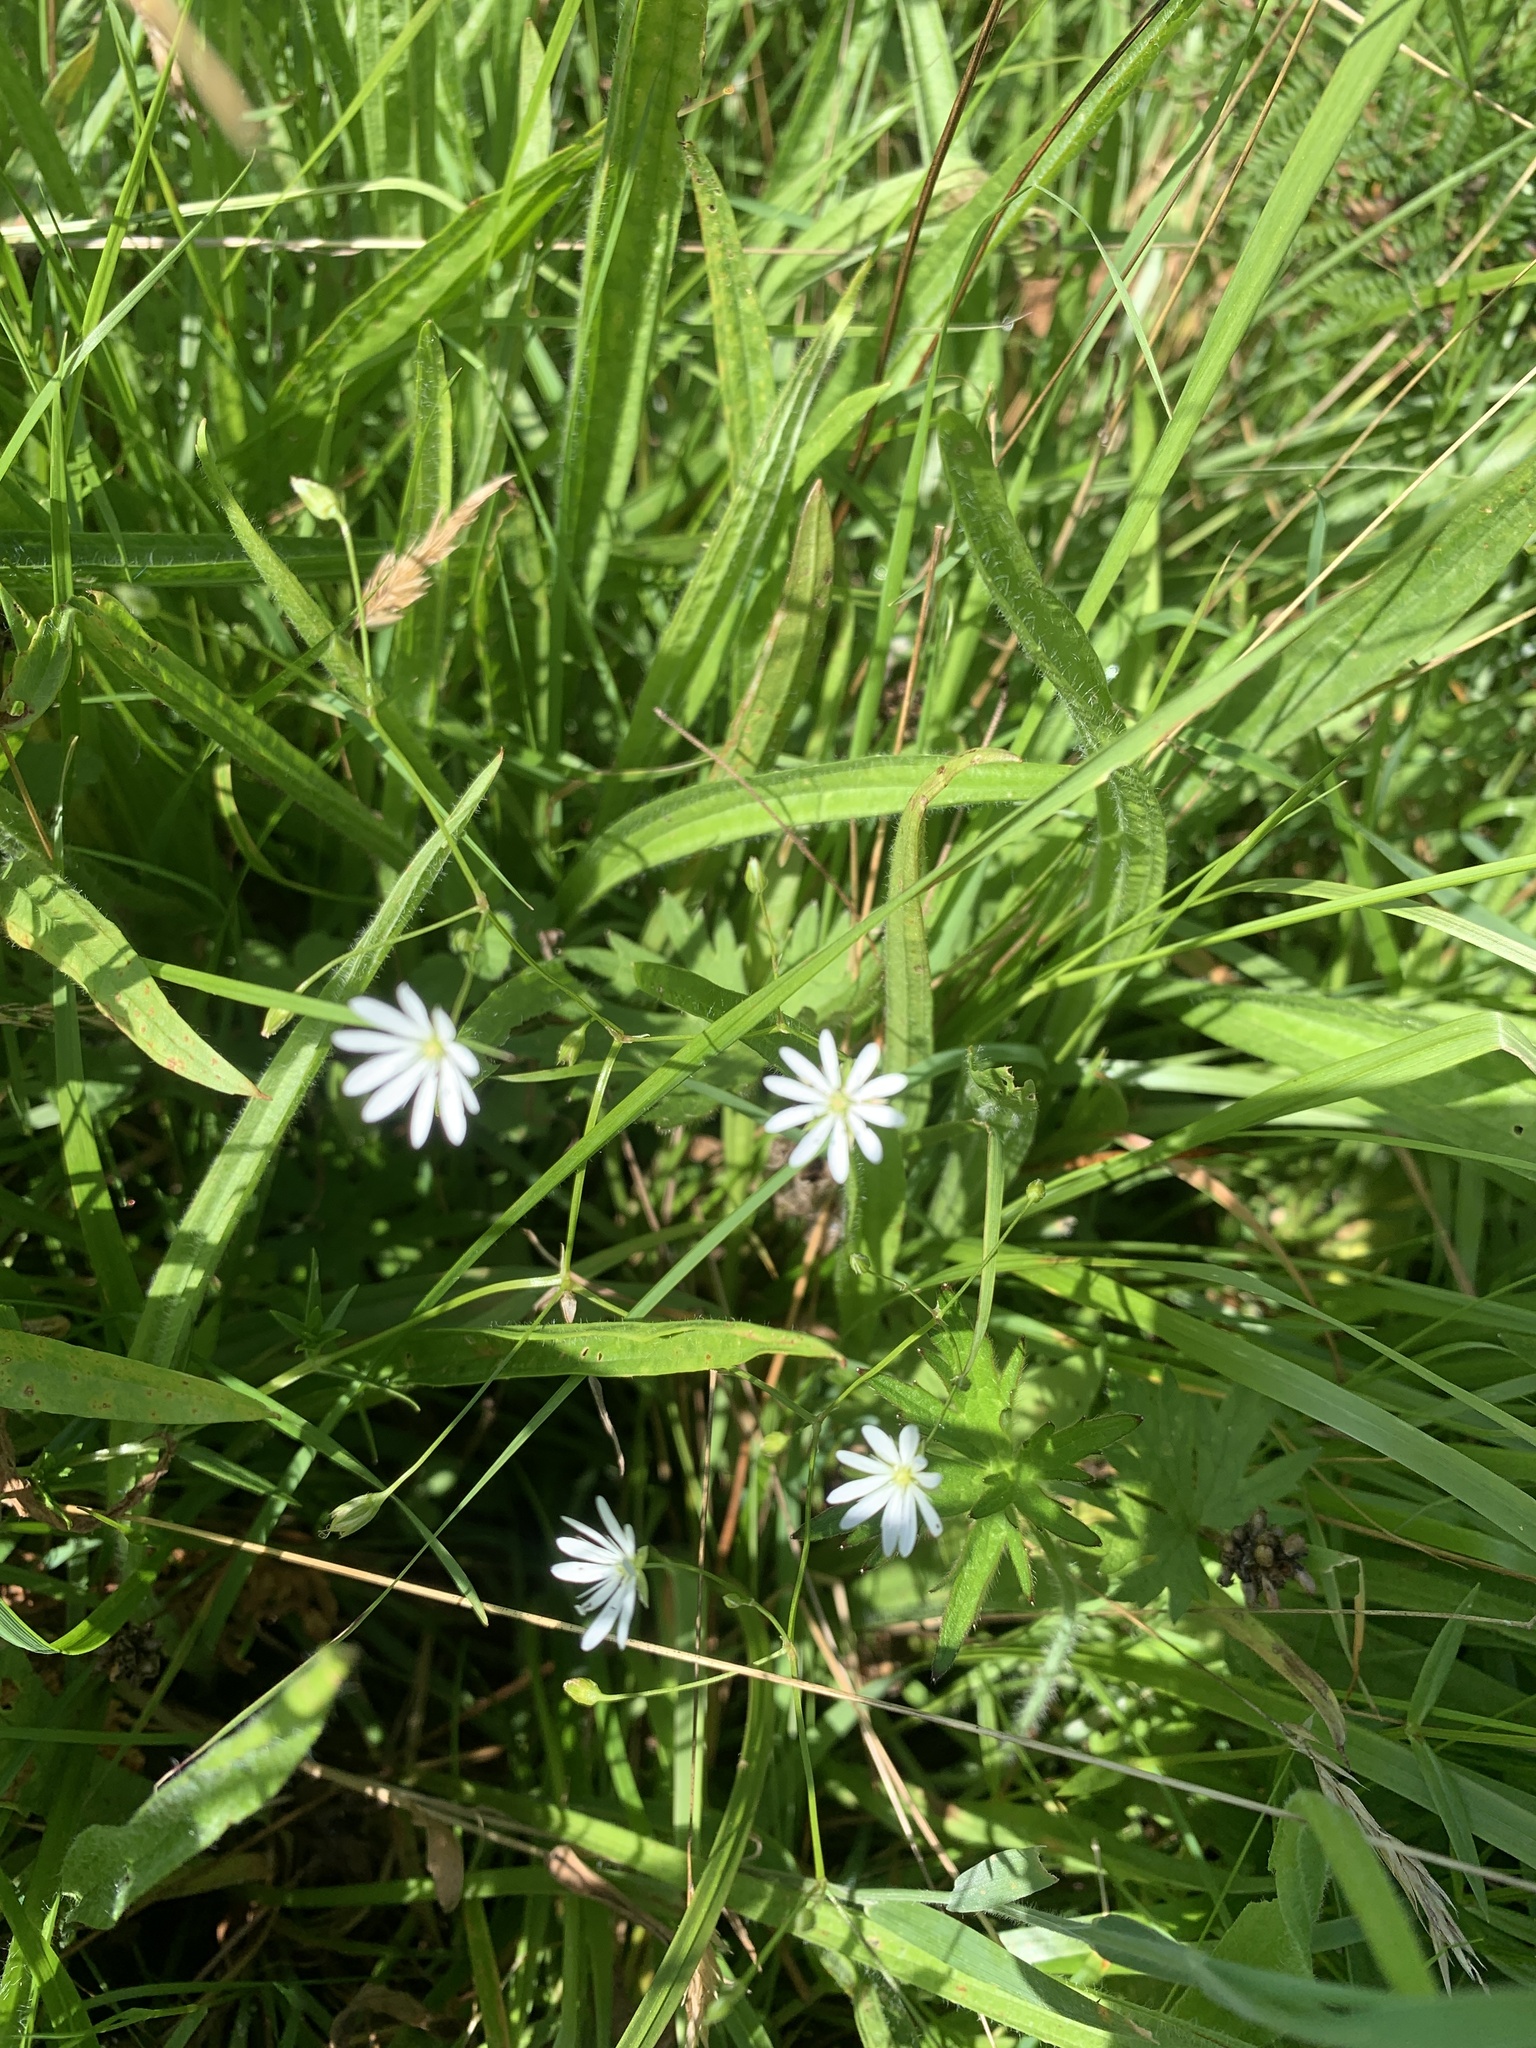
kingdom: Plantae
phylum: Tracheophyta
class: Magnoliopsida
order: Caryophyllales
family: Caryophyllaceae
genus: Stellaria
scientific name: Stellaria graminea
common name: Grass-like starwort
